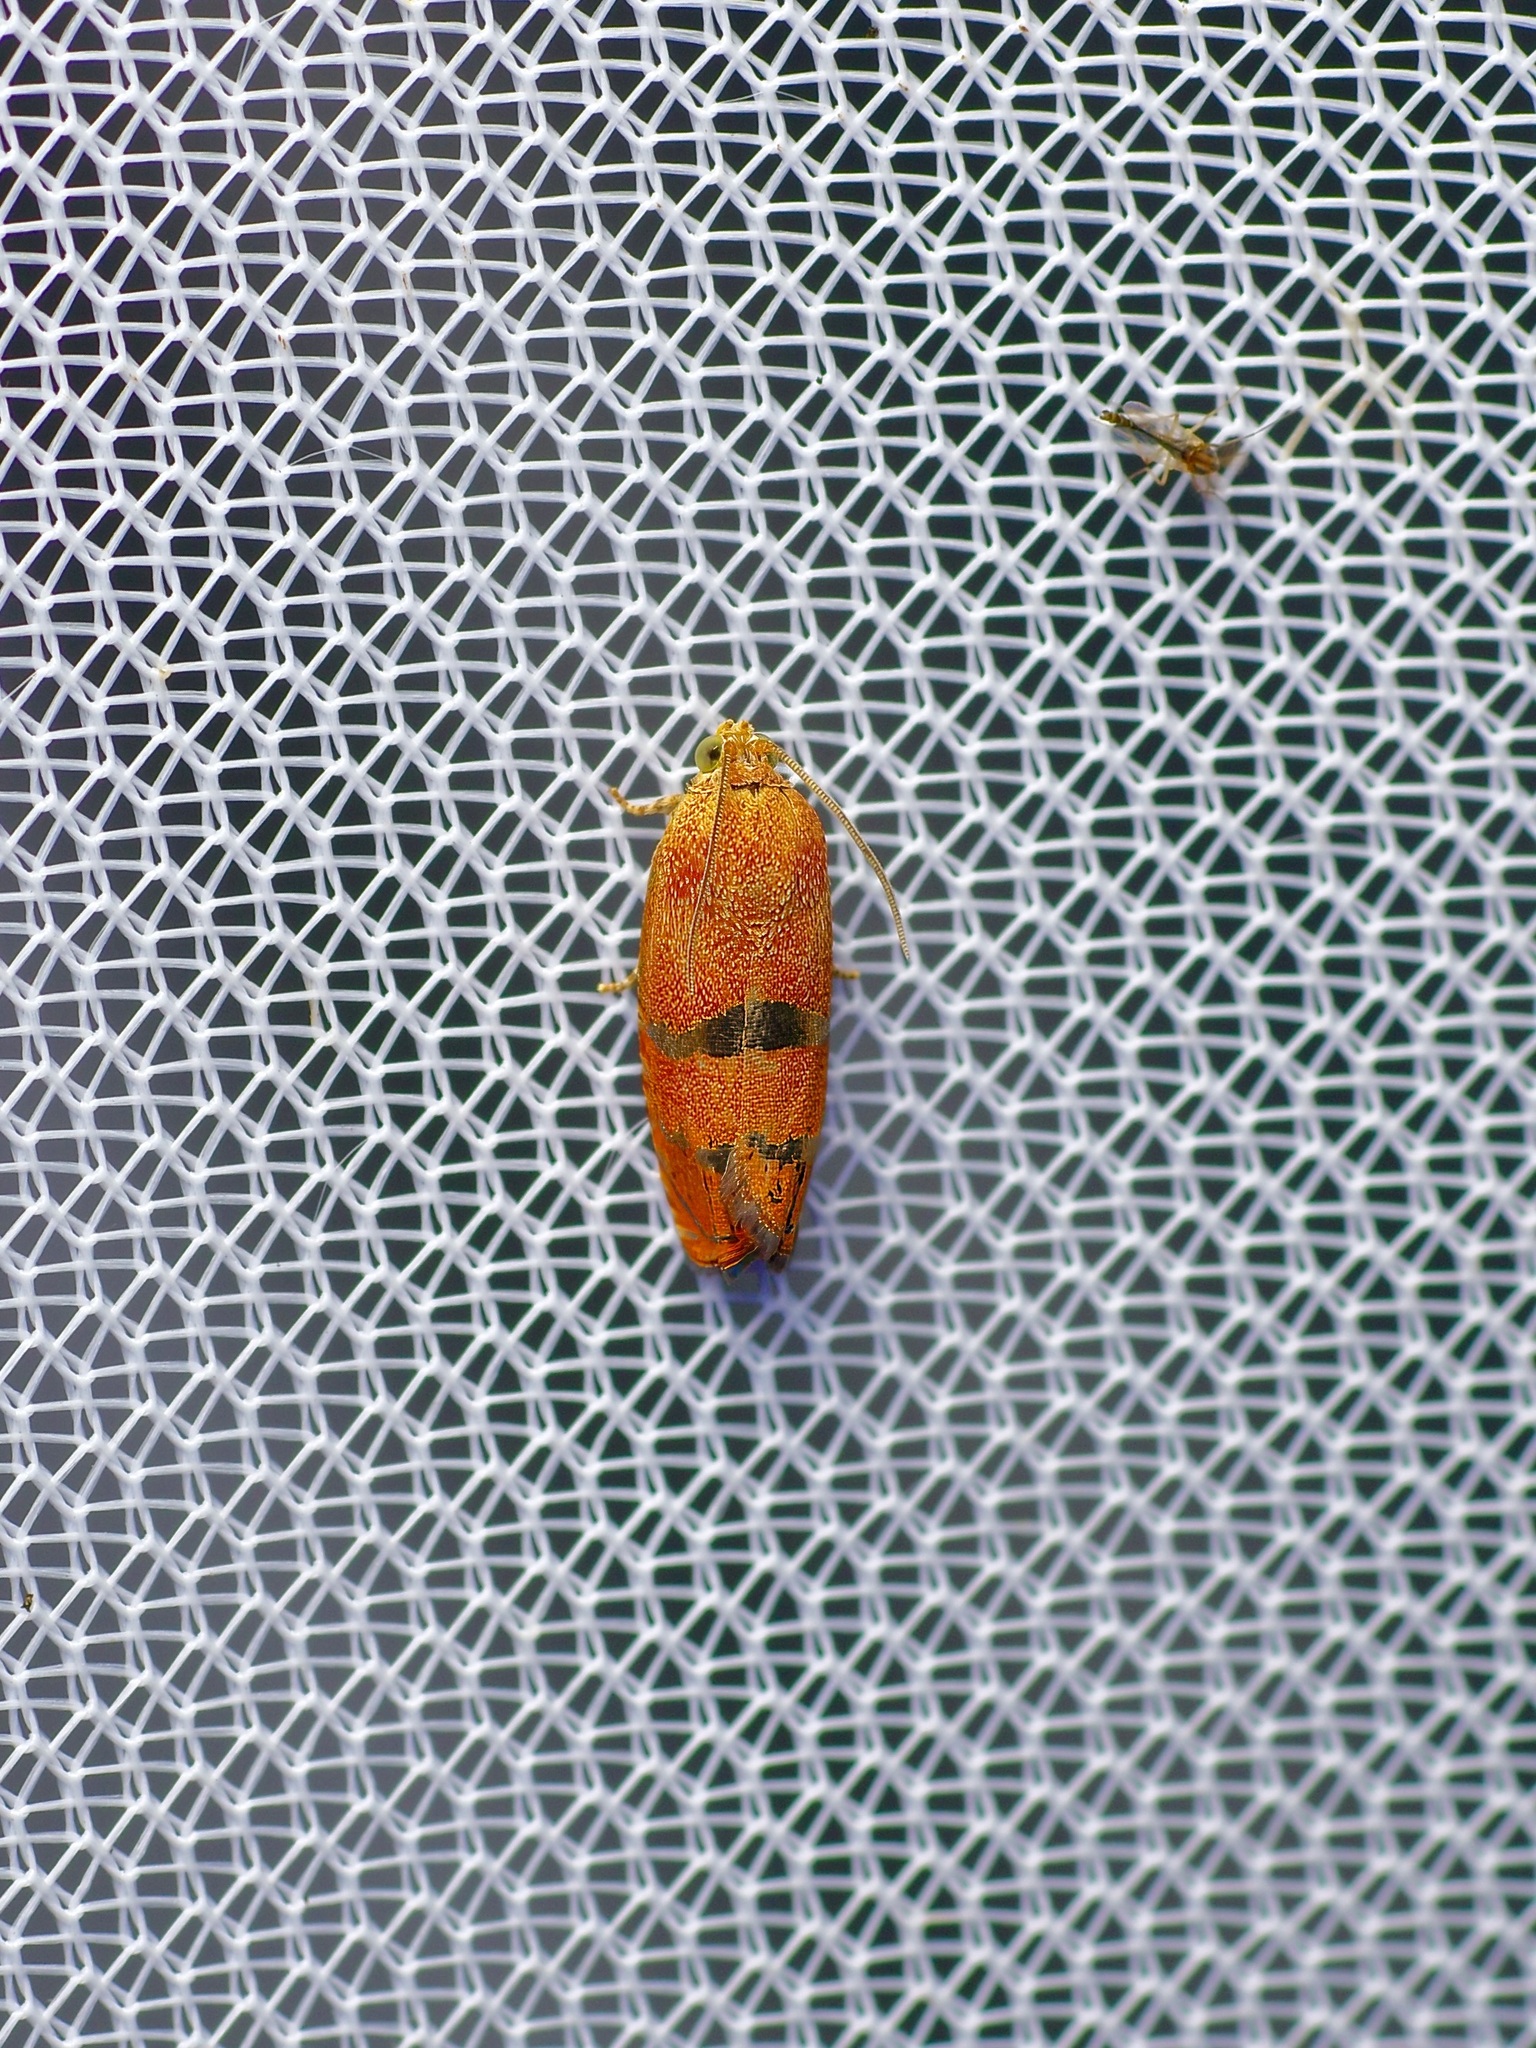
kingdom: Animalia
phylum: Arthropoda
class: Insecta
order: Lepidoptera
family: Tortricidae
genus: Cydia
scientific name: Cydia latiferreana
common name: Filbertworm moth
